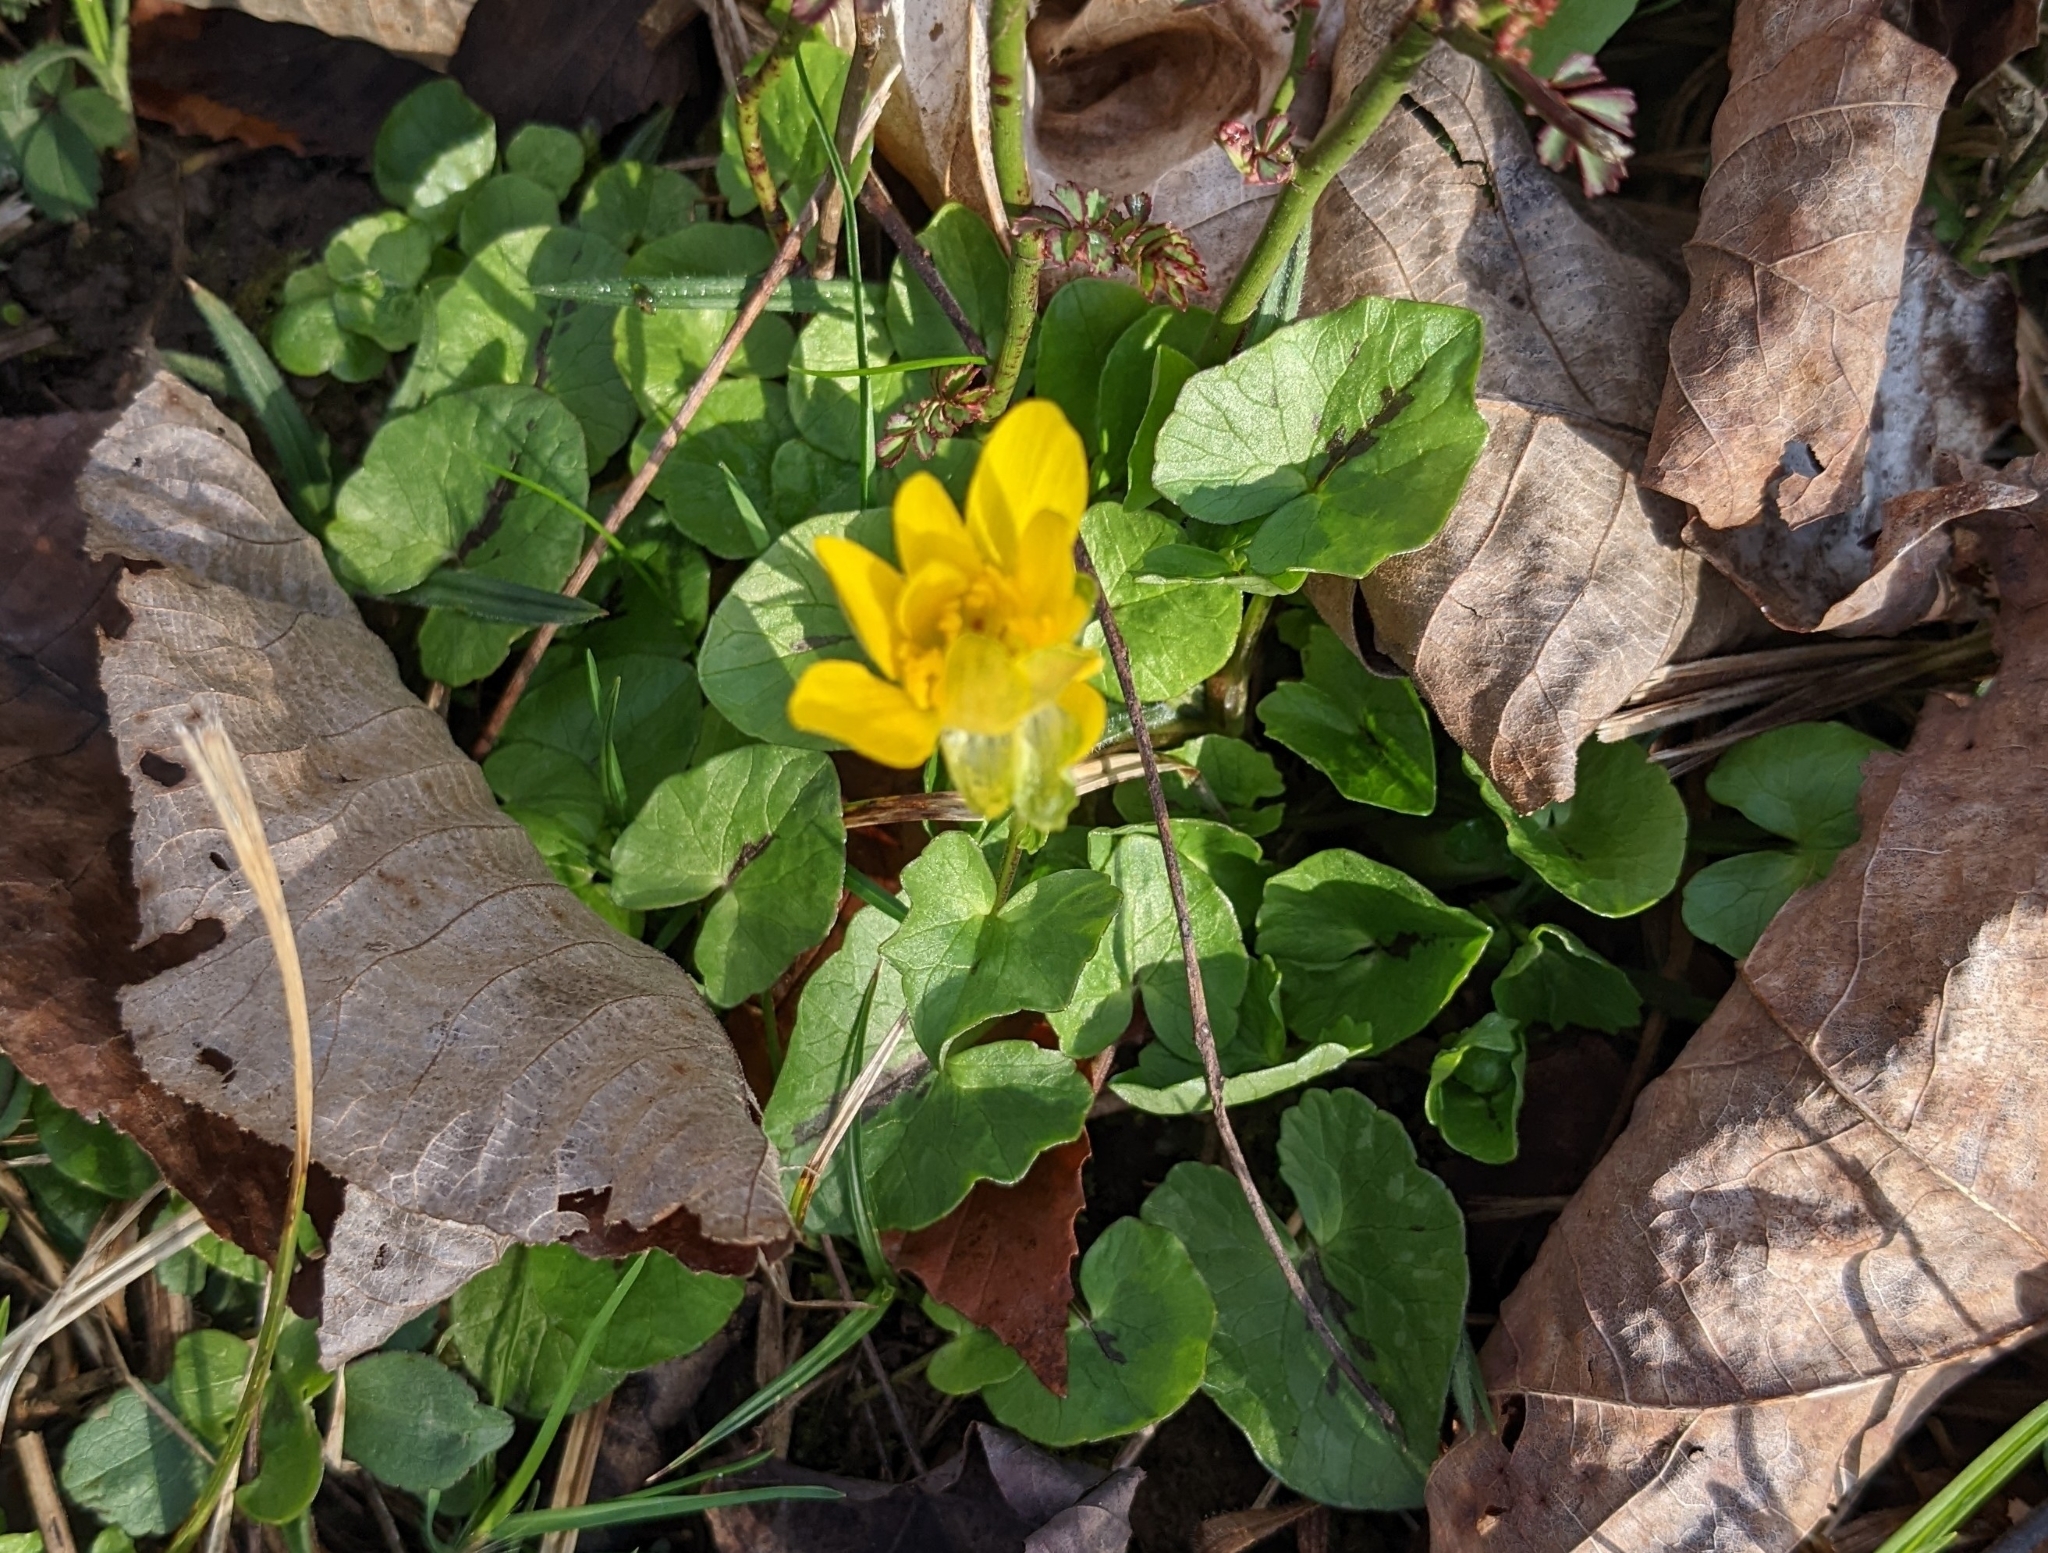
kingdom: Plantae
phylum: Tracheophyta
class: Magnoliopsida
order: Ranunculales
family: Ranunculaceae
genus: Ficaria
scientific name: Ficaria verna
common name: Lesser celandine
